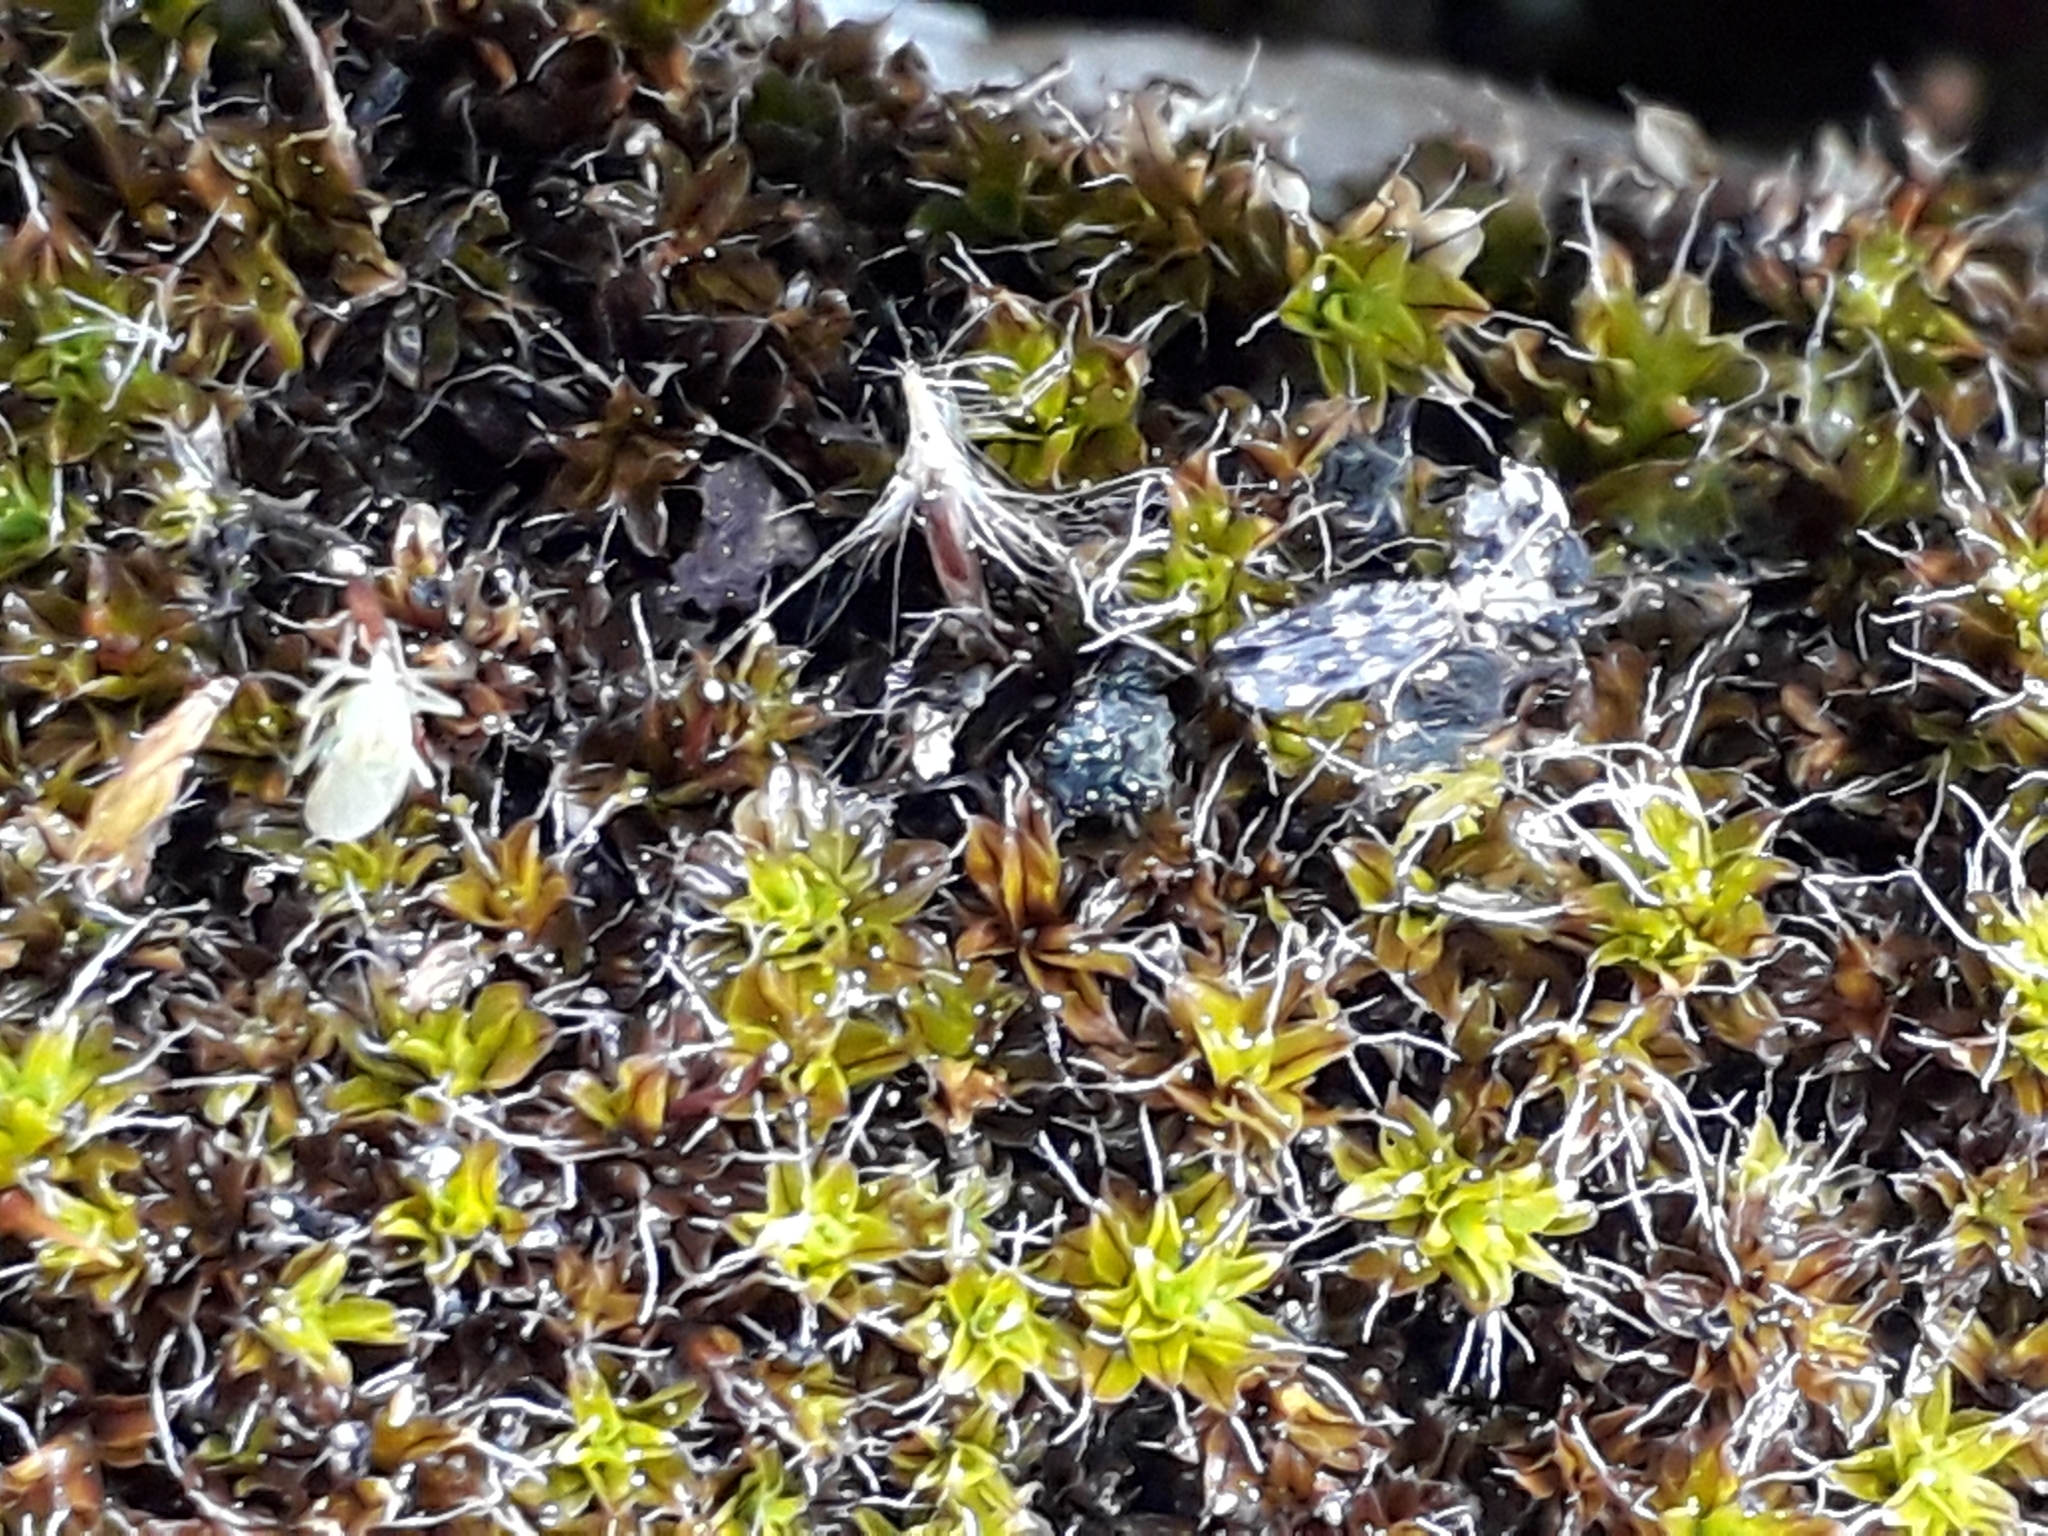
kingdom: Plantae
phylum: Bryophyta
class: Bryopsida
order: Pottiales
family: Pottiaceae
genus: Syntrichia
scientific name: Syntrichia ruralis
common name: Sidewalk screw moss
